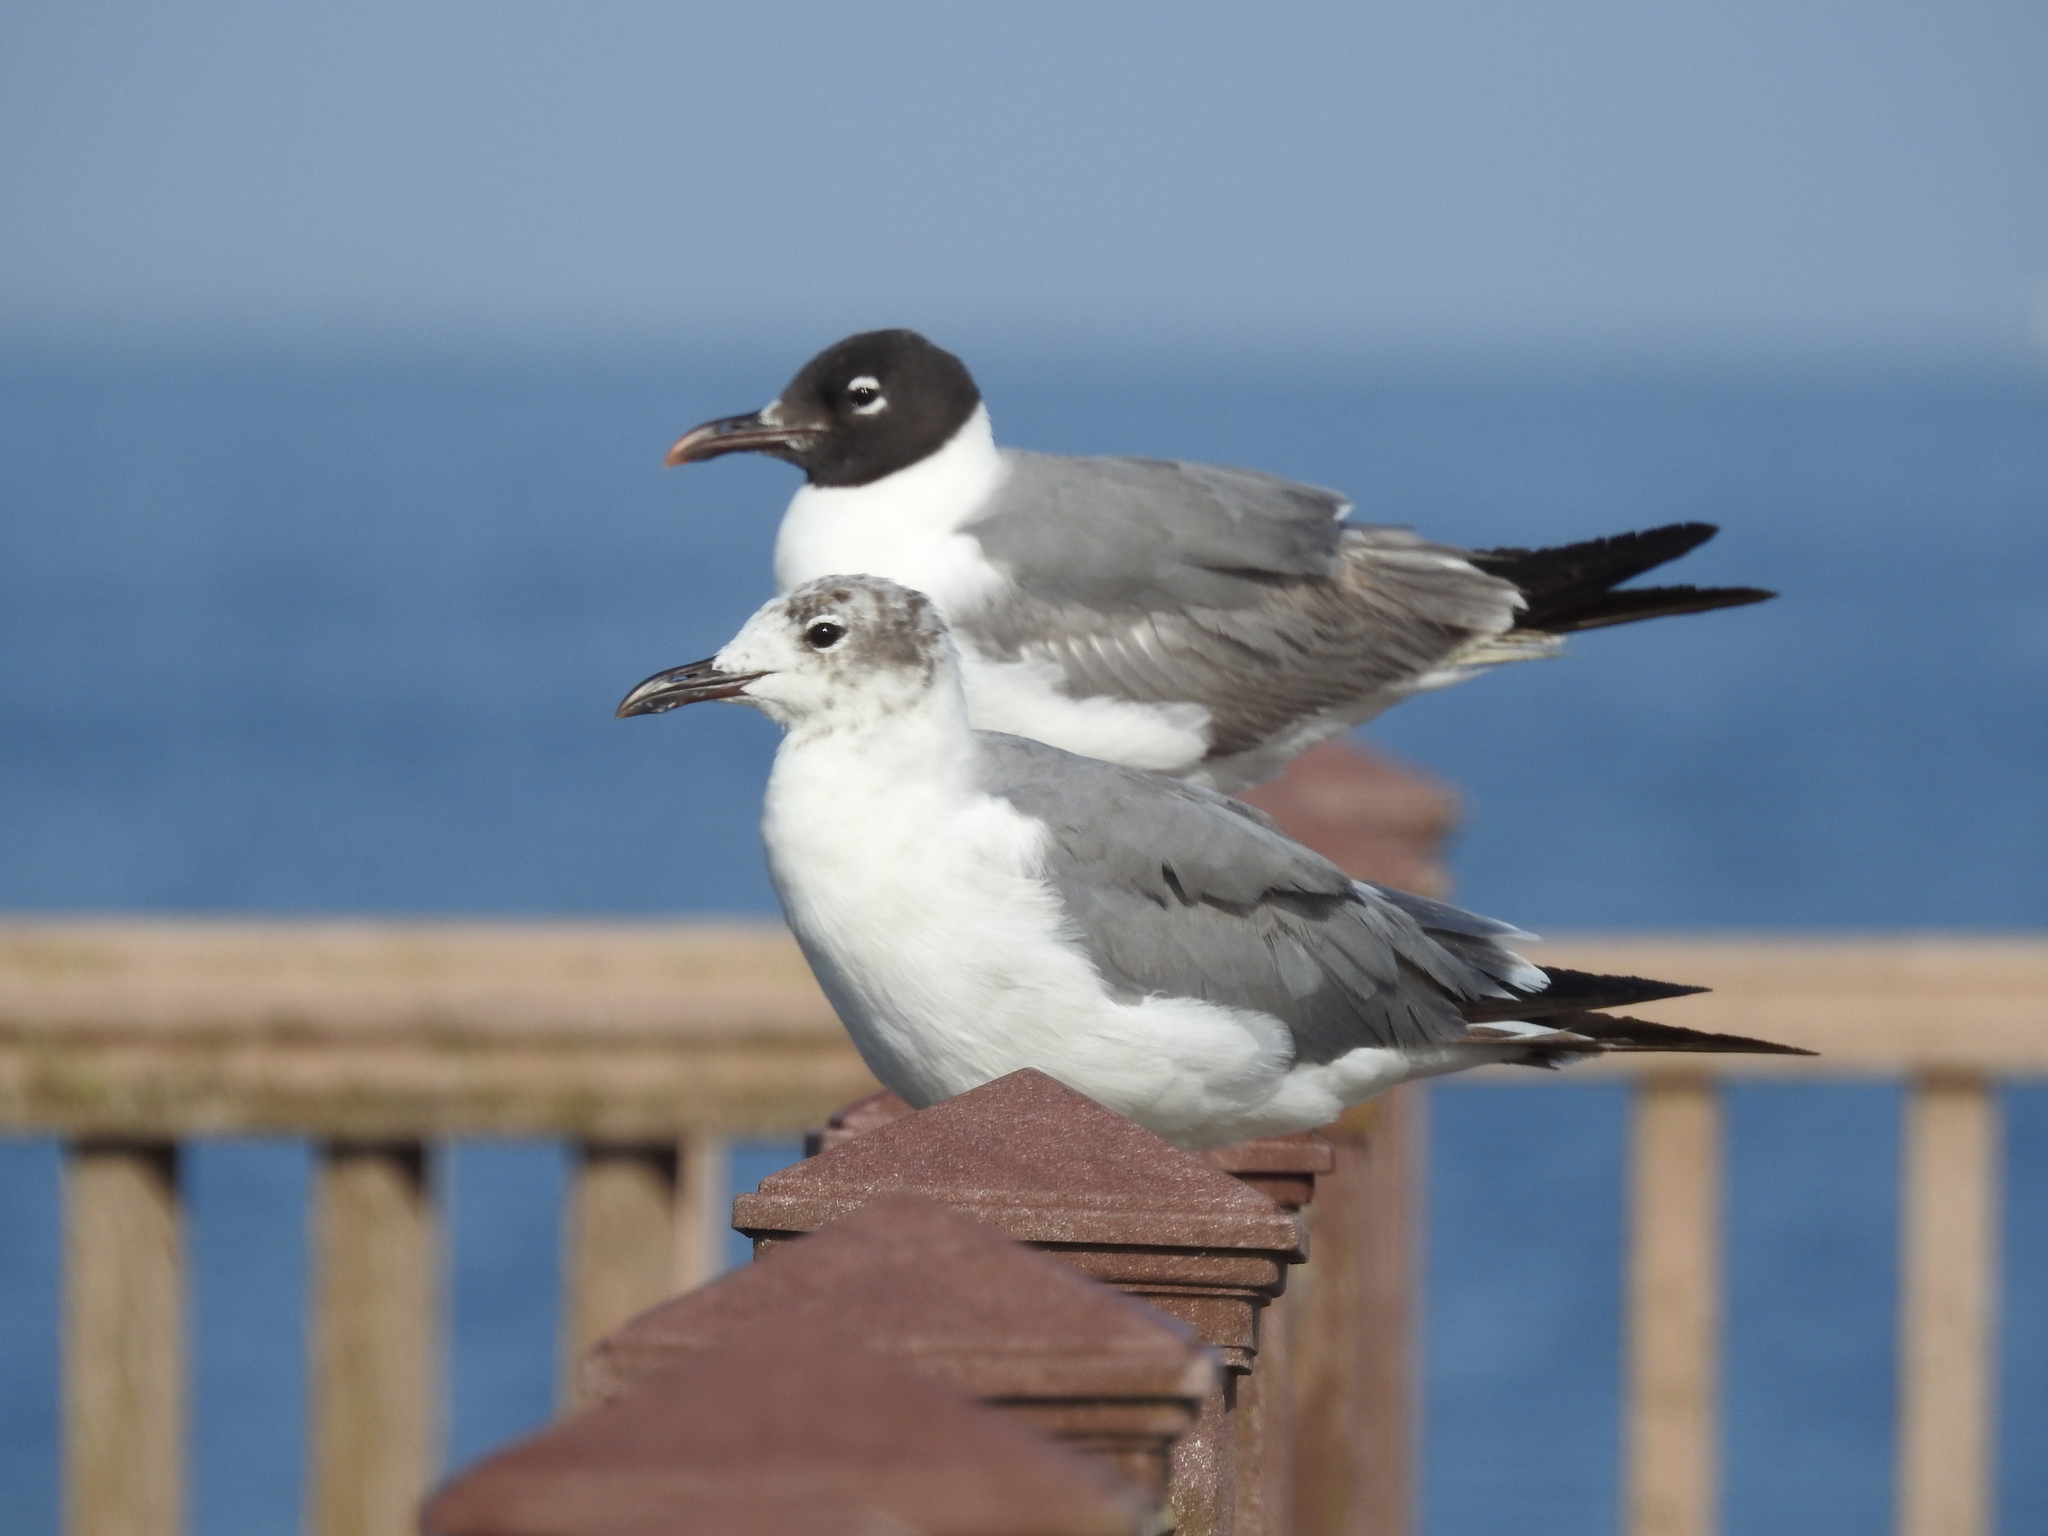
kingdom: Animalia
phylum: Chordata
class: Aves
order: Charadriiformes
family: Laridae
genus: Leucophaeus
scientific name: Leucophaeus atricilla
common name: Laughing gull
